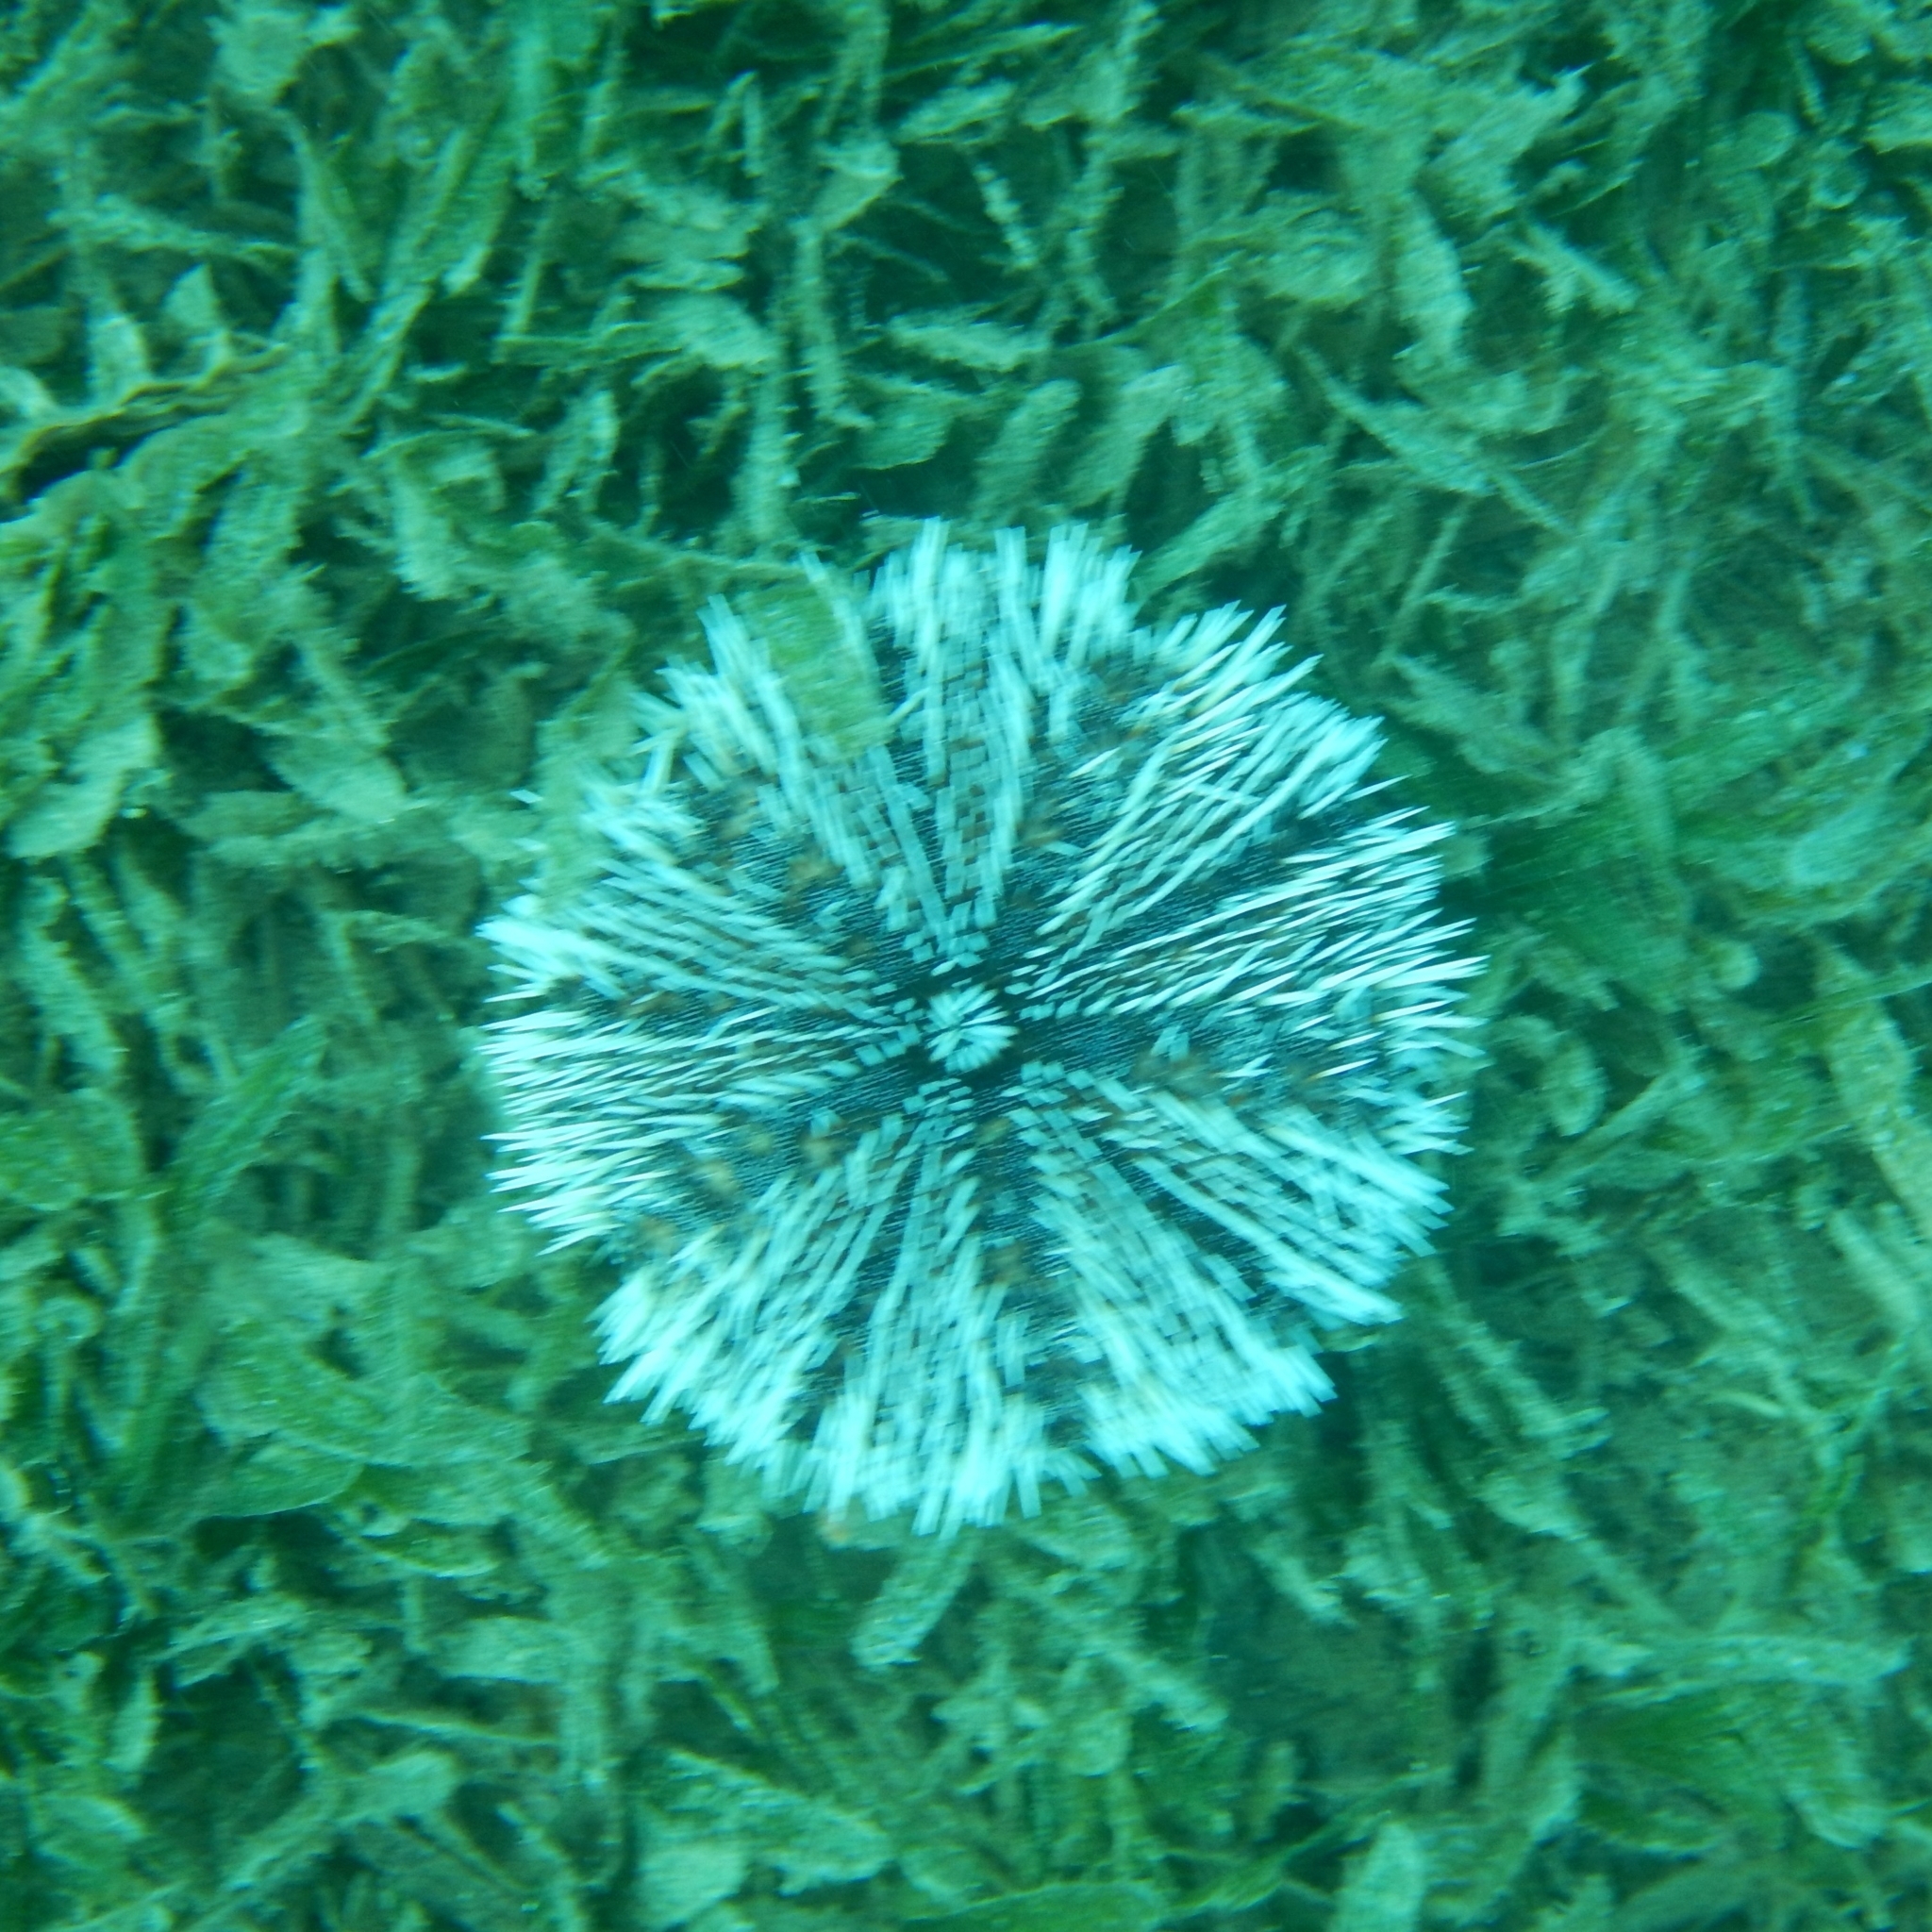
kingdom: Animalia
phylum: Echinodermata
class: Echinoidea
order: Camarodonta
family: Toxopneustidae
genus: Tripneustes
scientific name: Tripneustes ventricosus
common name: West indian sea egg
